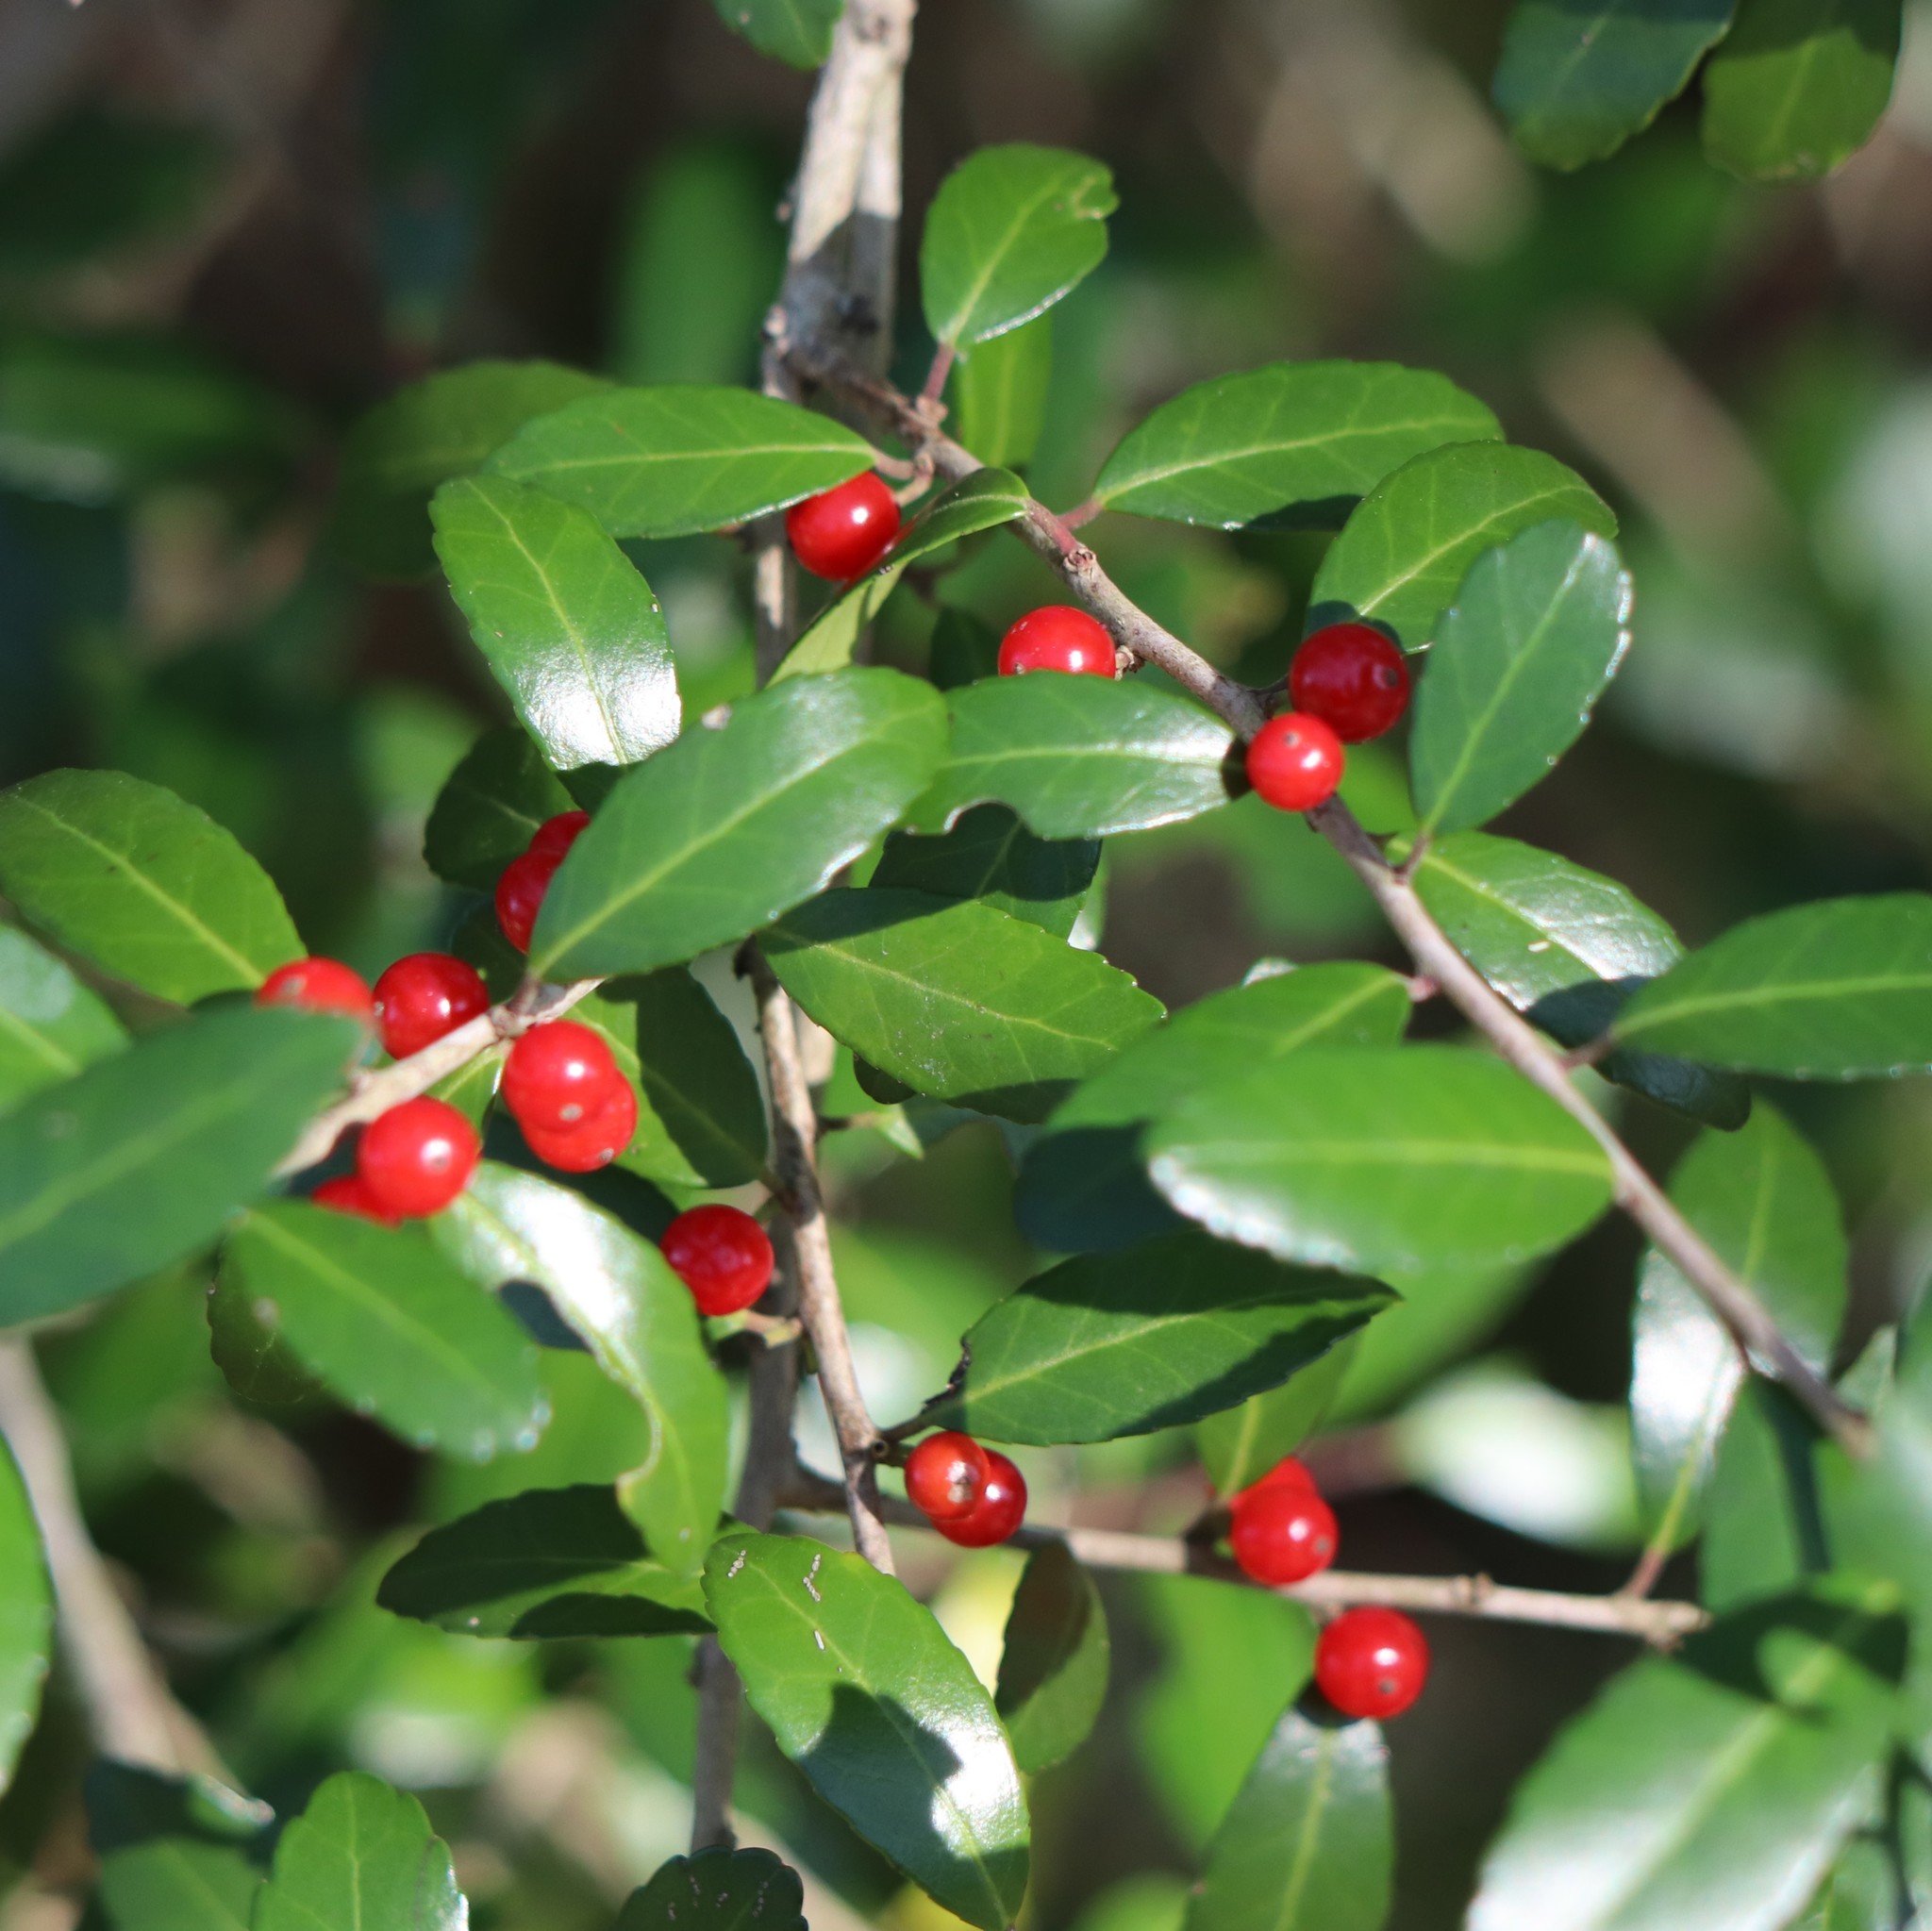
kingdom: Plantae
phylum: Tracheophyta
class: Magnoliopsida
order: Aquifoliales
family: Aquifoliaceae
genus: Ilex
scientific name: Ilex vomitoria
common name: Yaupon holly
